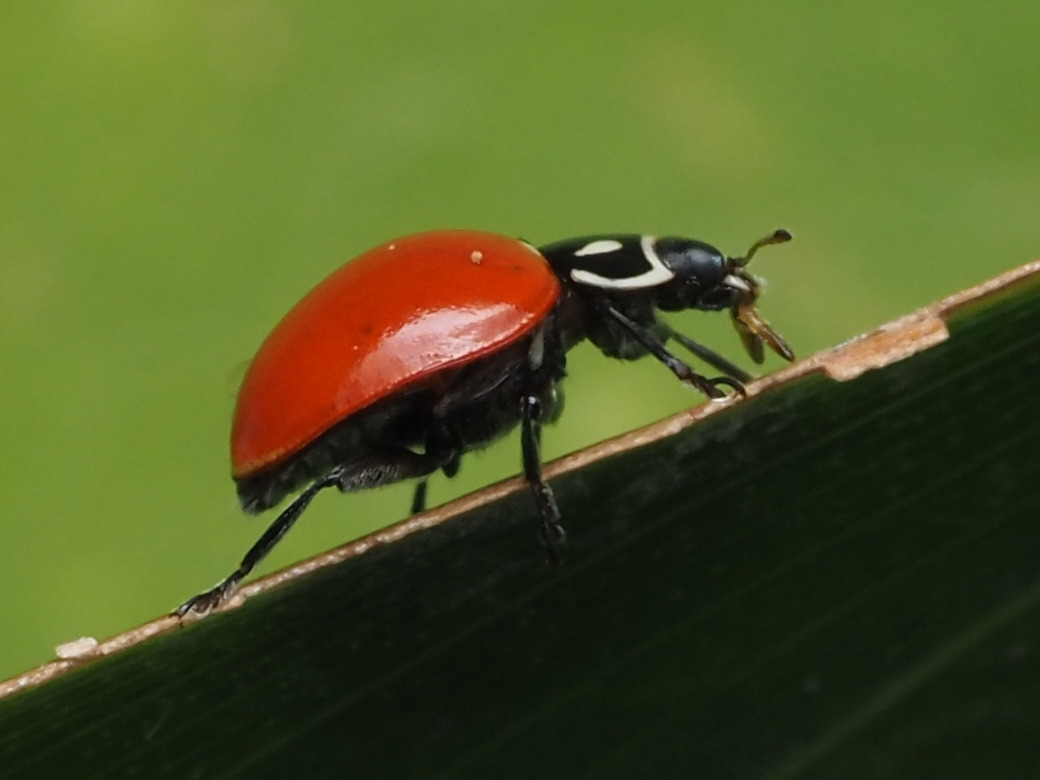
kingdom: Animalia
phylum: Arthropoda
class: Insecta
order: Coleoptera
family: Coccinellidae
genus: Cycloneda
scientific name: Cycloneda emarginata
